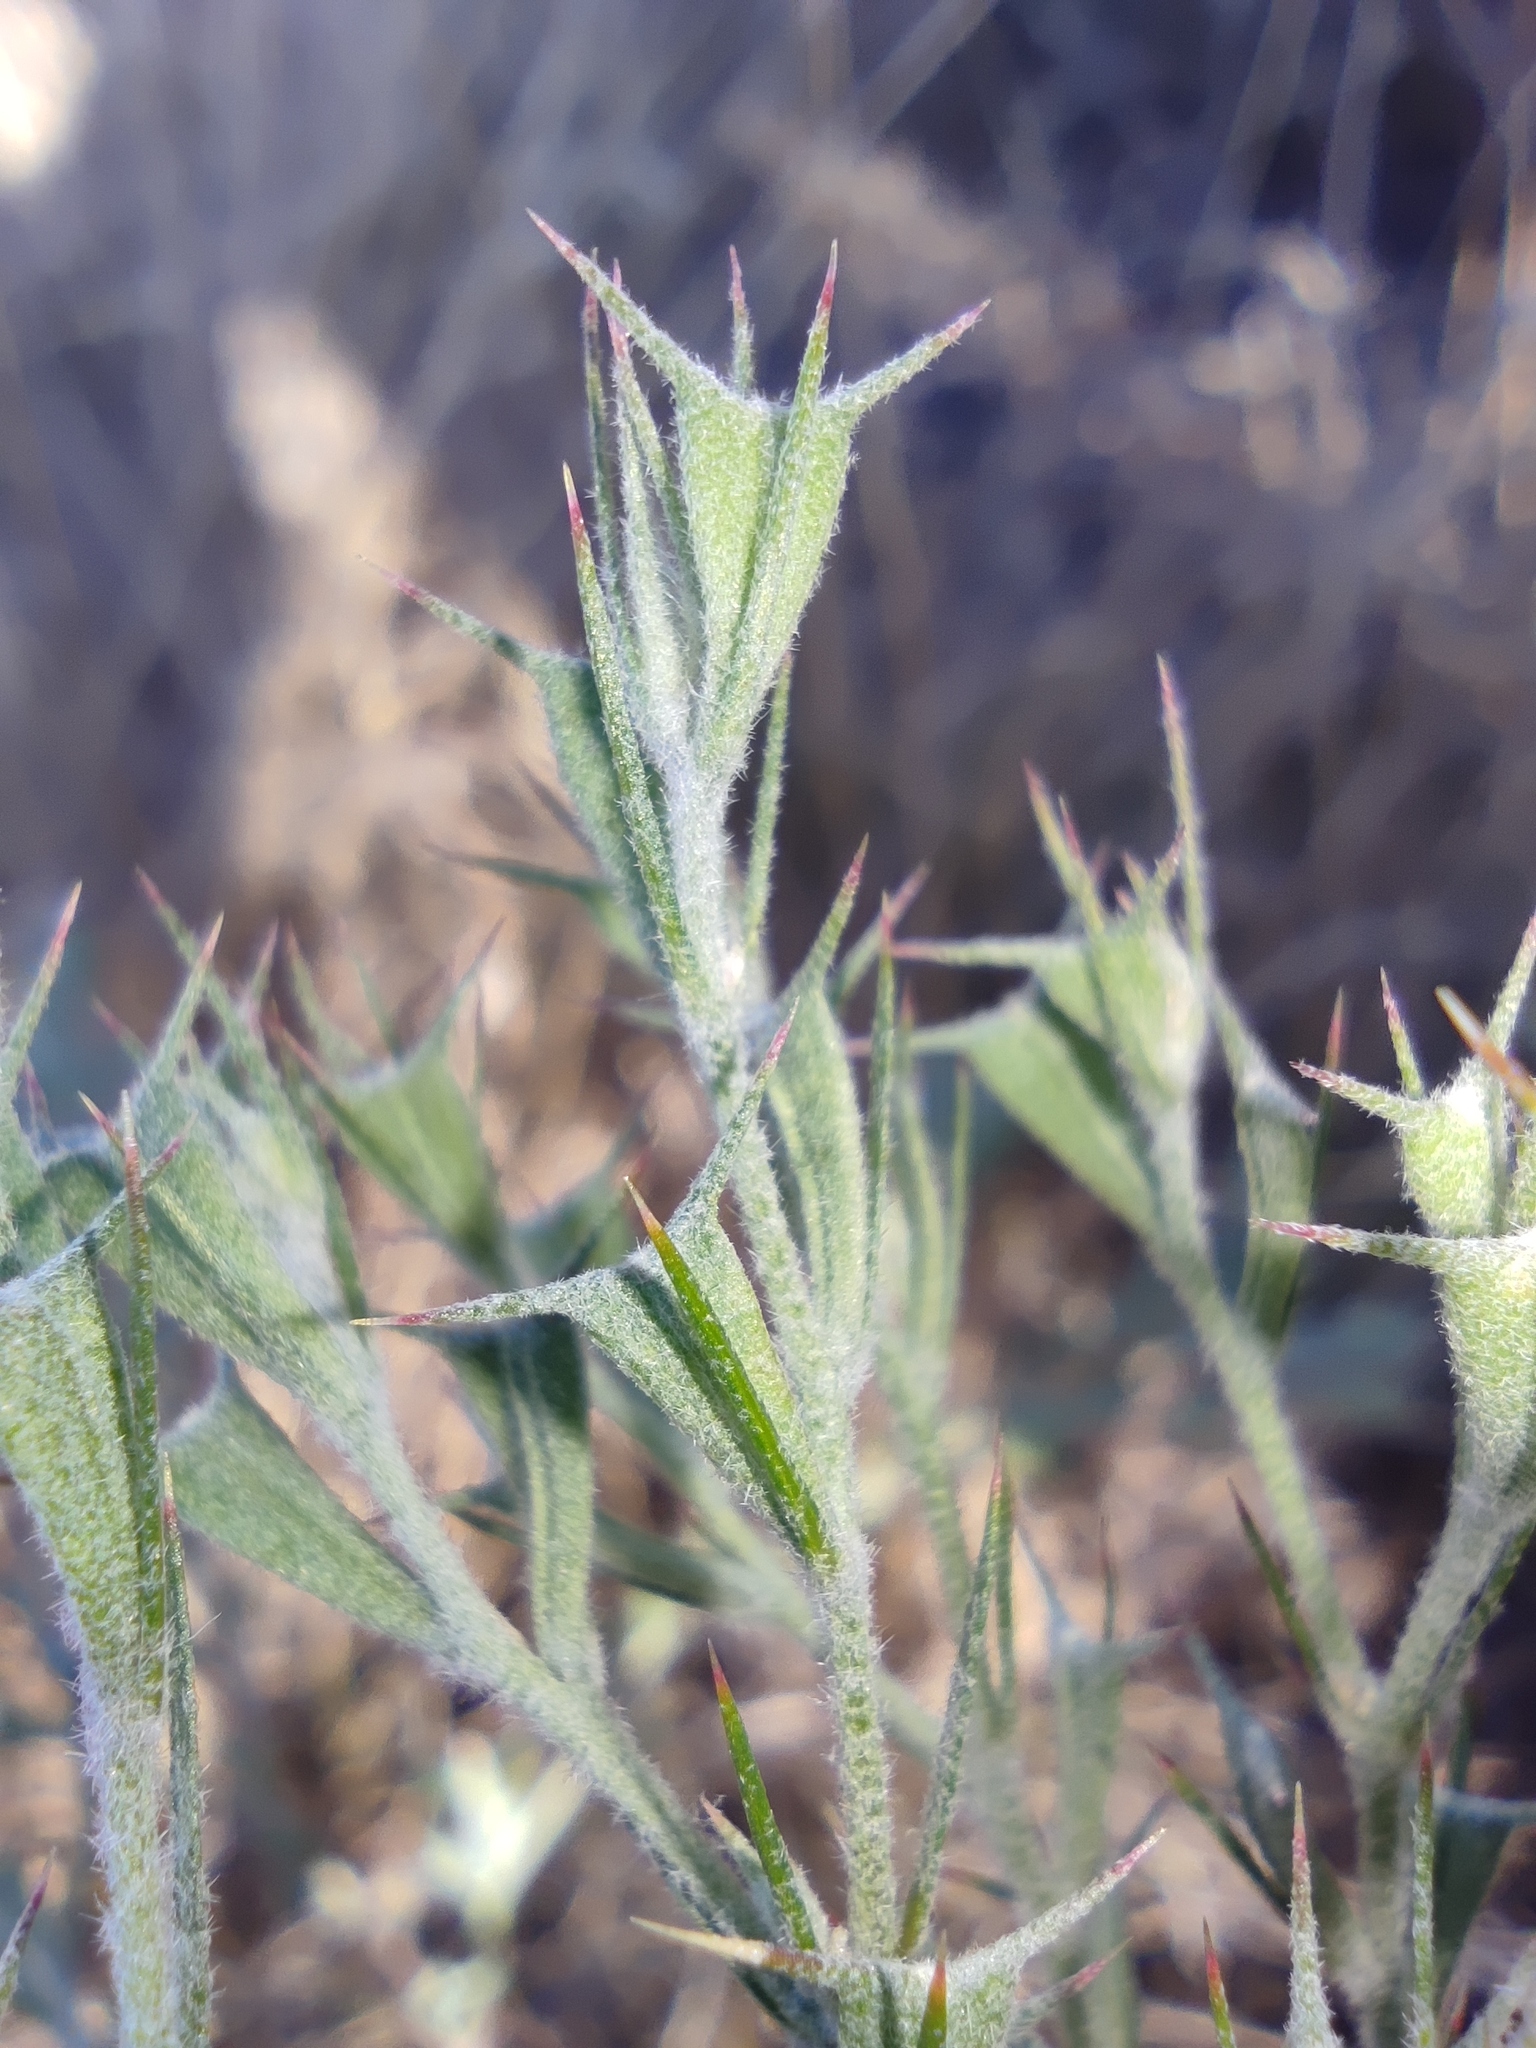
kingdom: Plantae
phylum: Tracheophyta
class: Magnoliopsida
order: Caryophyllales
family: Amaranthaceae
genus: Ceratocarpus
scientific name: Ceratocarpus arenarius
